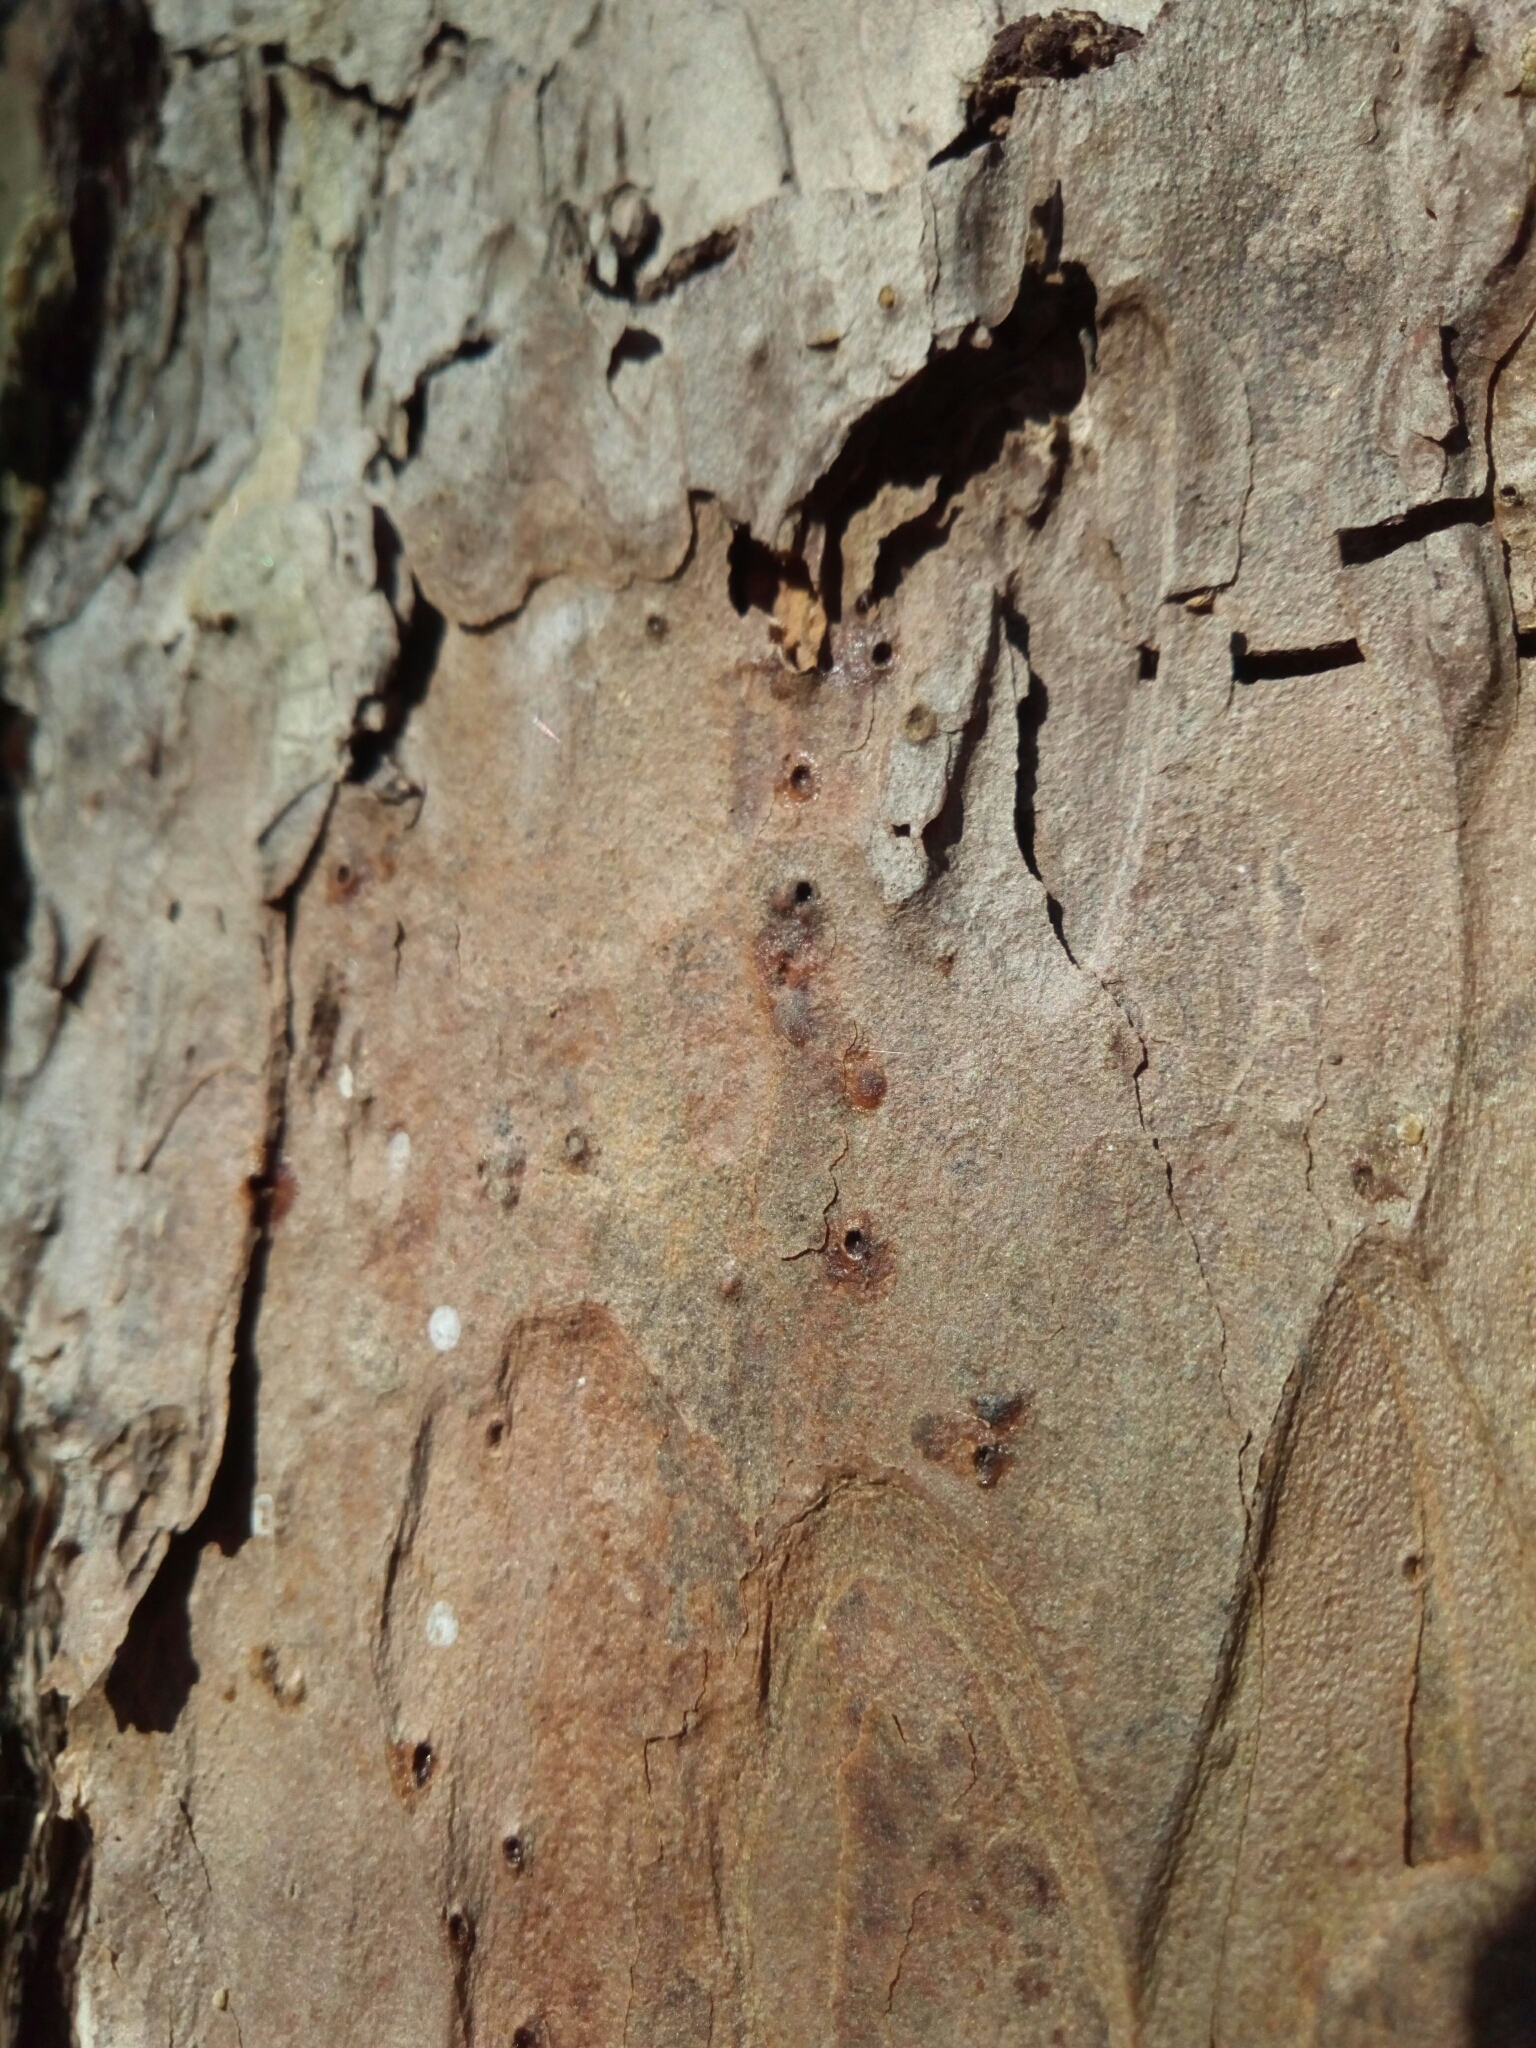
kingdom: Plantae
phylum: Tracheophyta
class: Pinopsida
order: Pinales
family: Pinaceae
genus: Pinus
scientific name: Pinus echinata
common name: Shortleaf pine
